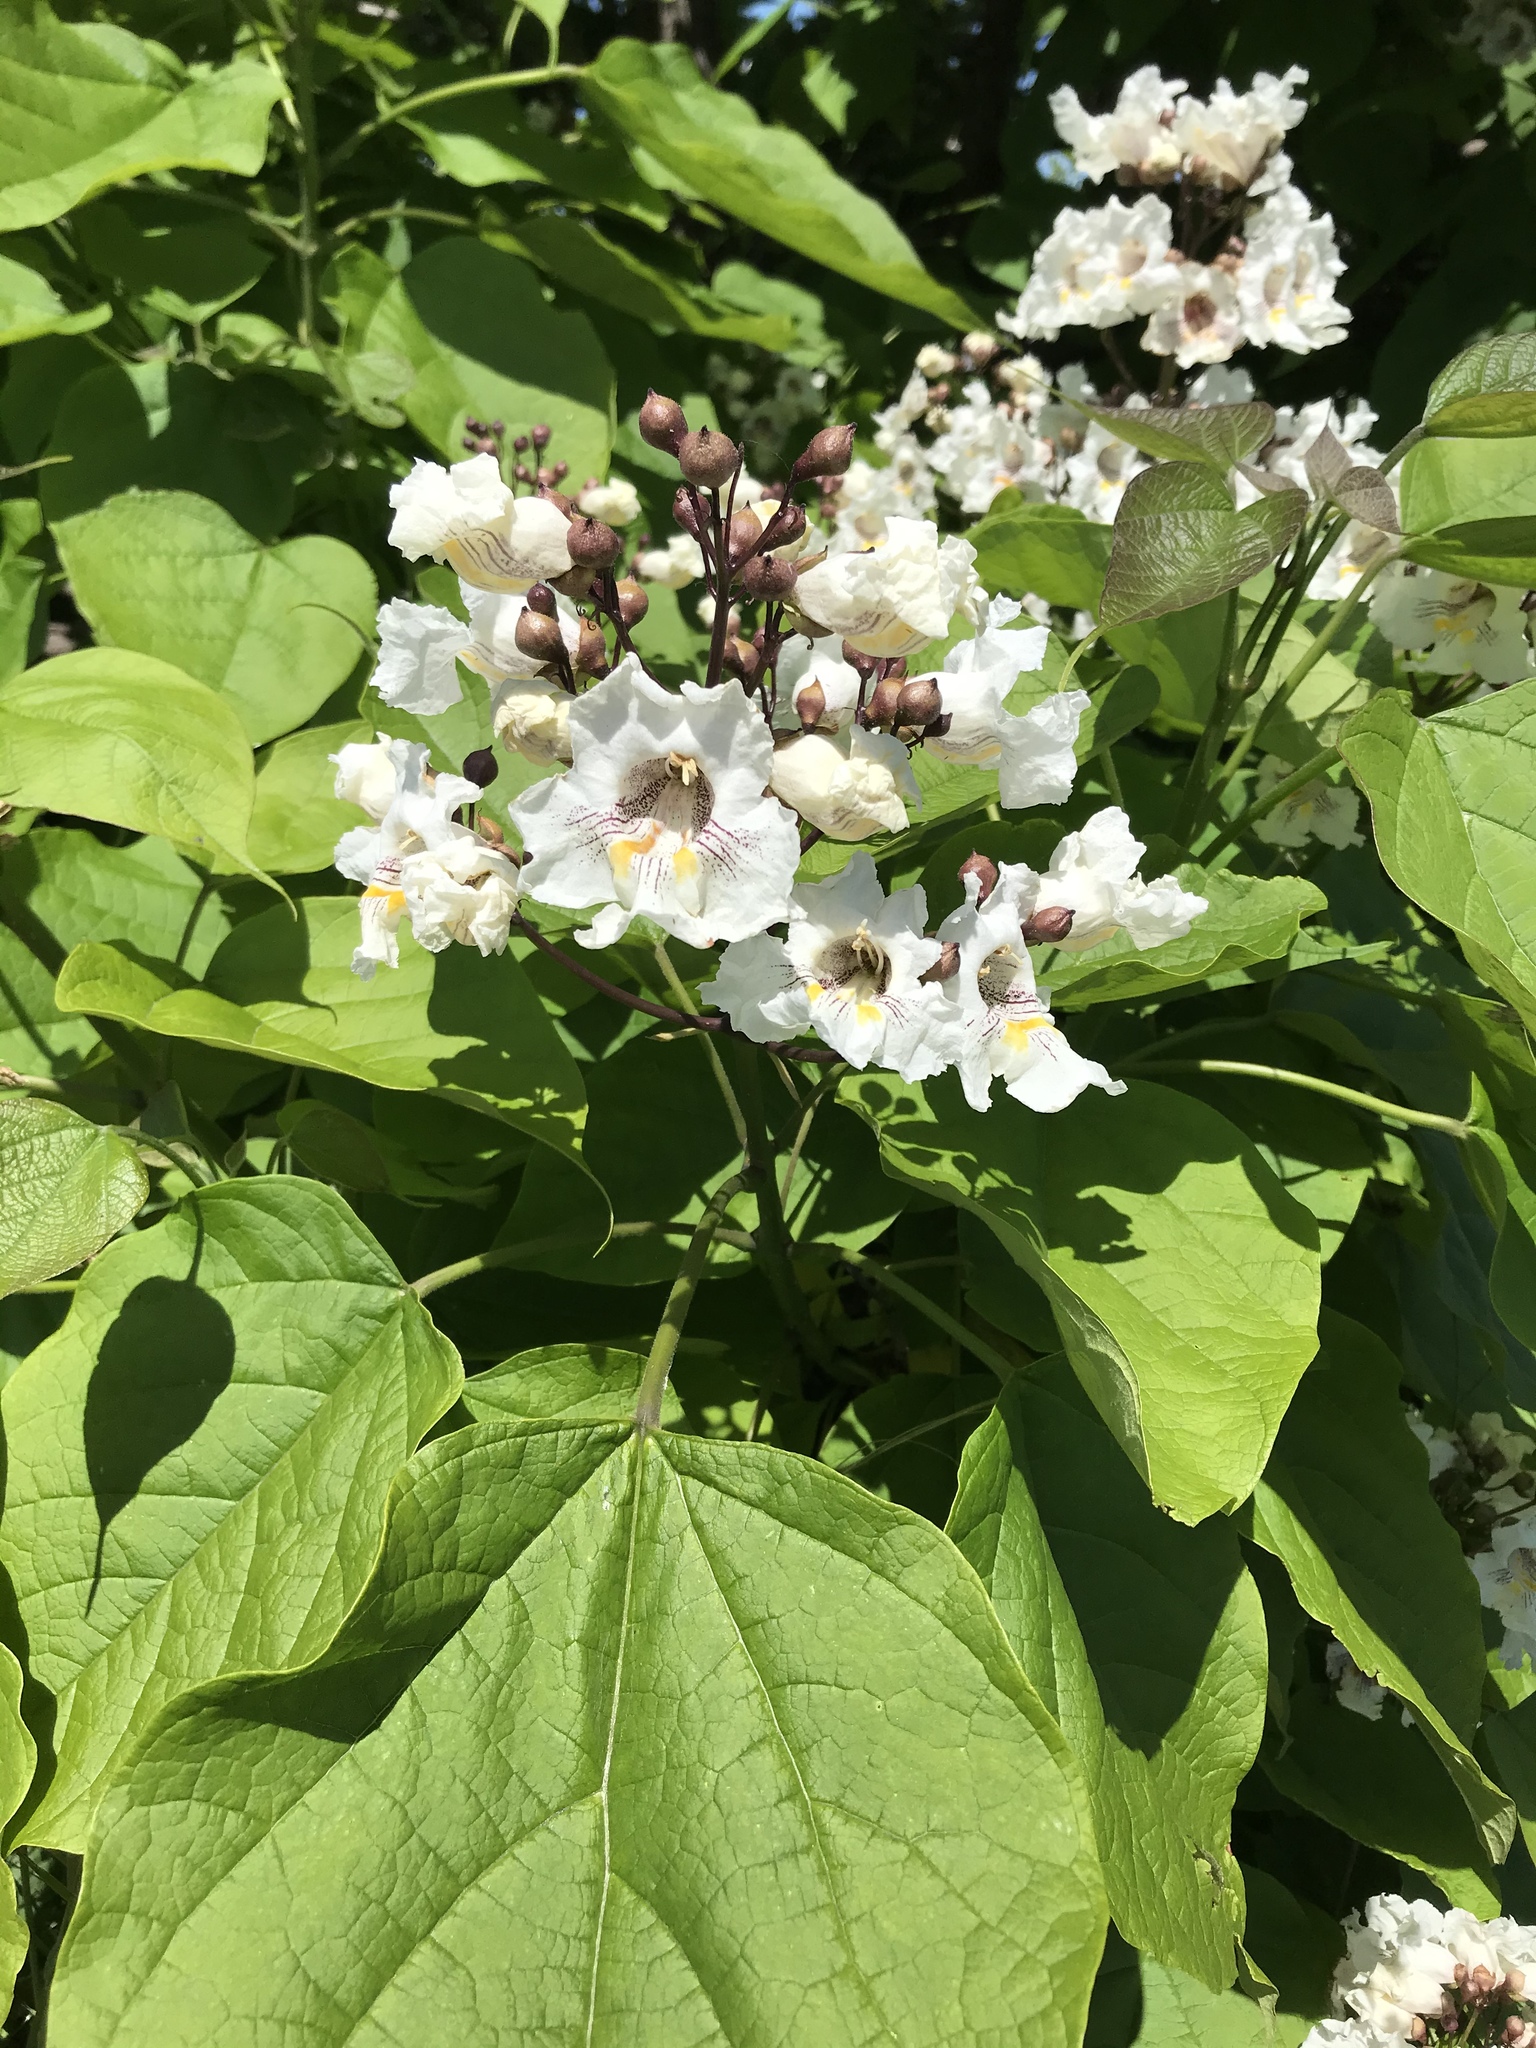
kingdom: Plantae
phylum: Tracheophyta
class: Magnoliopsida
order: Lamiales
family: Bignoniaceae
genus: Catalpa
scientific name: Catalpa bignonioides
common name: Southern catalpa
